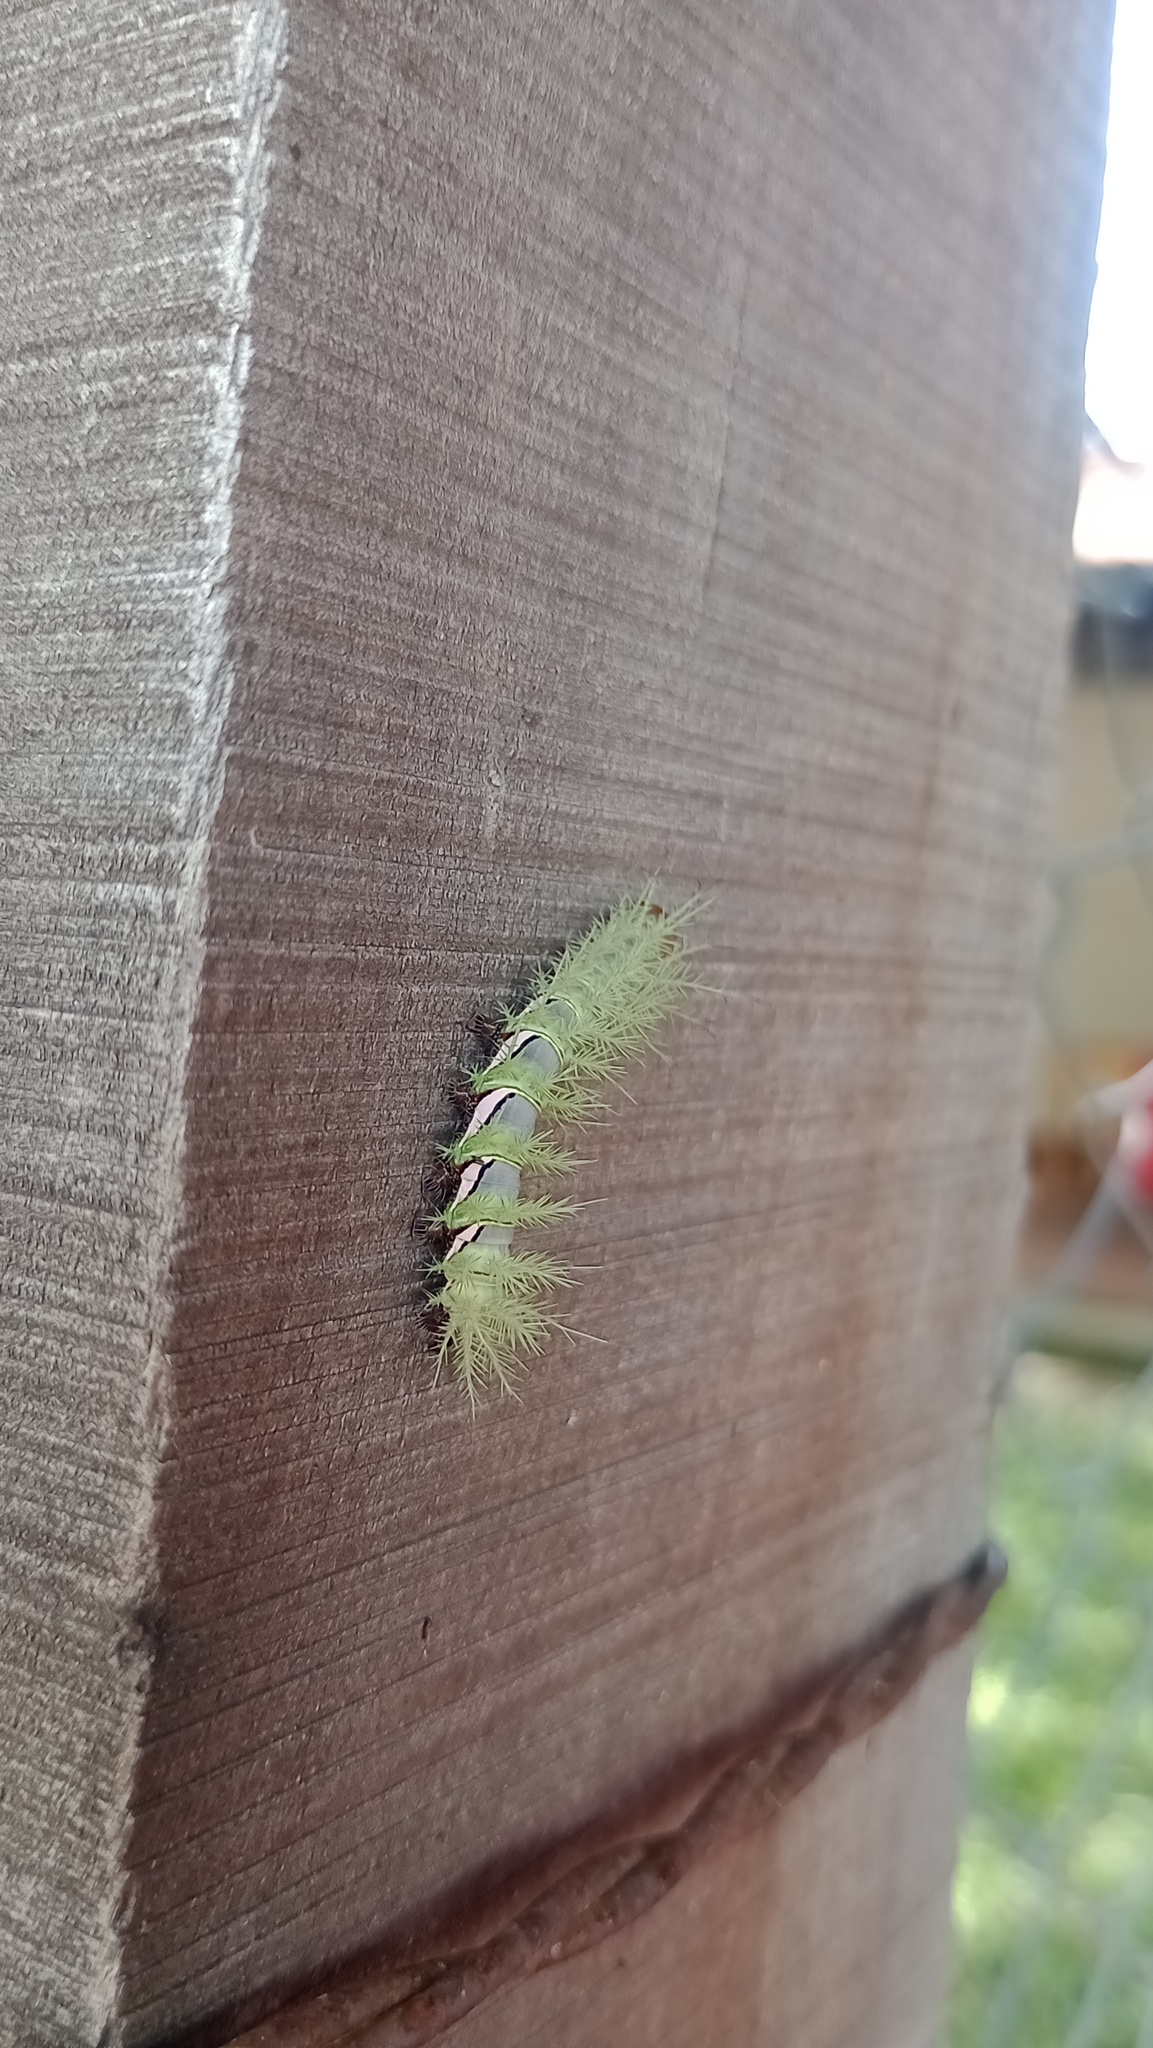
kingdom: Animalia
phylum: Arthropoda
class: Insecta
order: Lepidoptera
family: Saturniidae
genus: Automeris
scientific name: Automeris umbrosa
